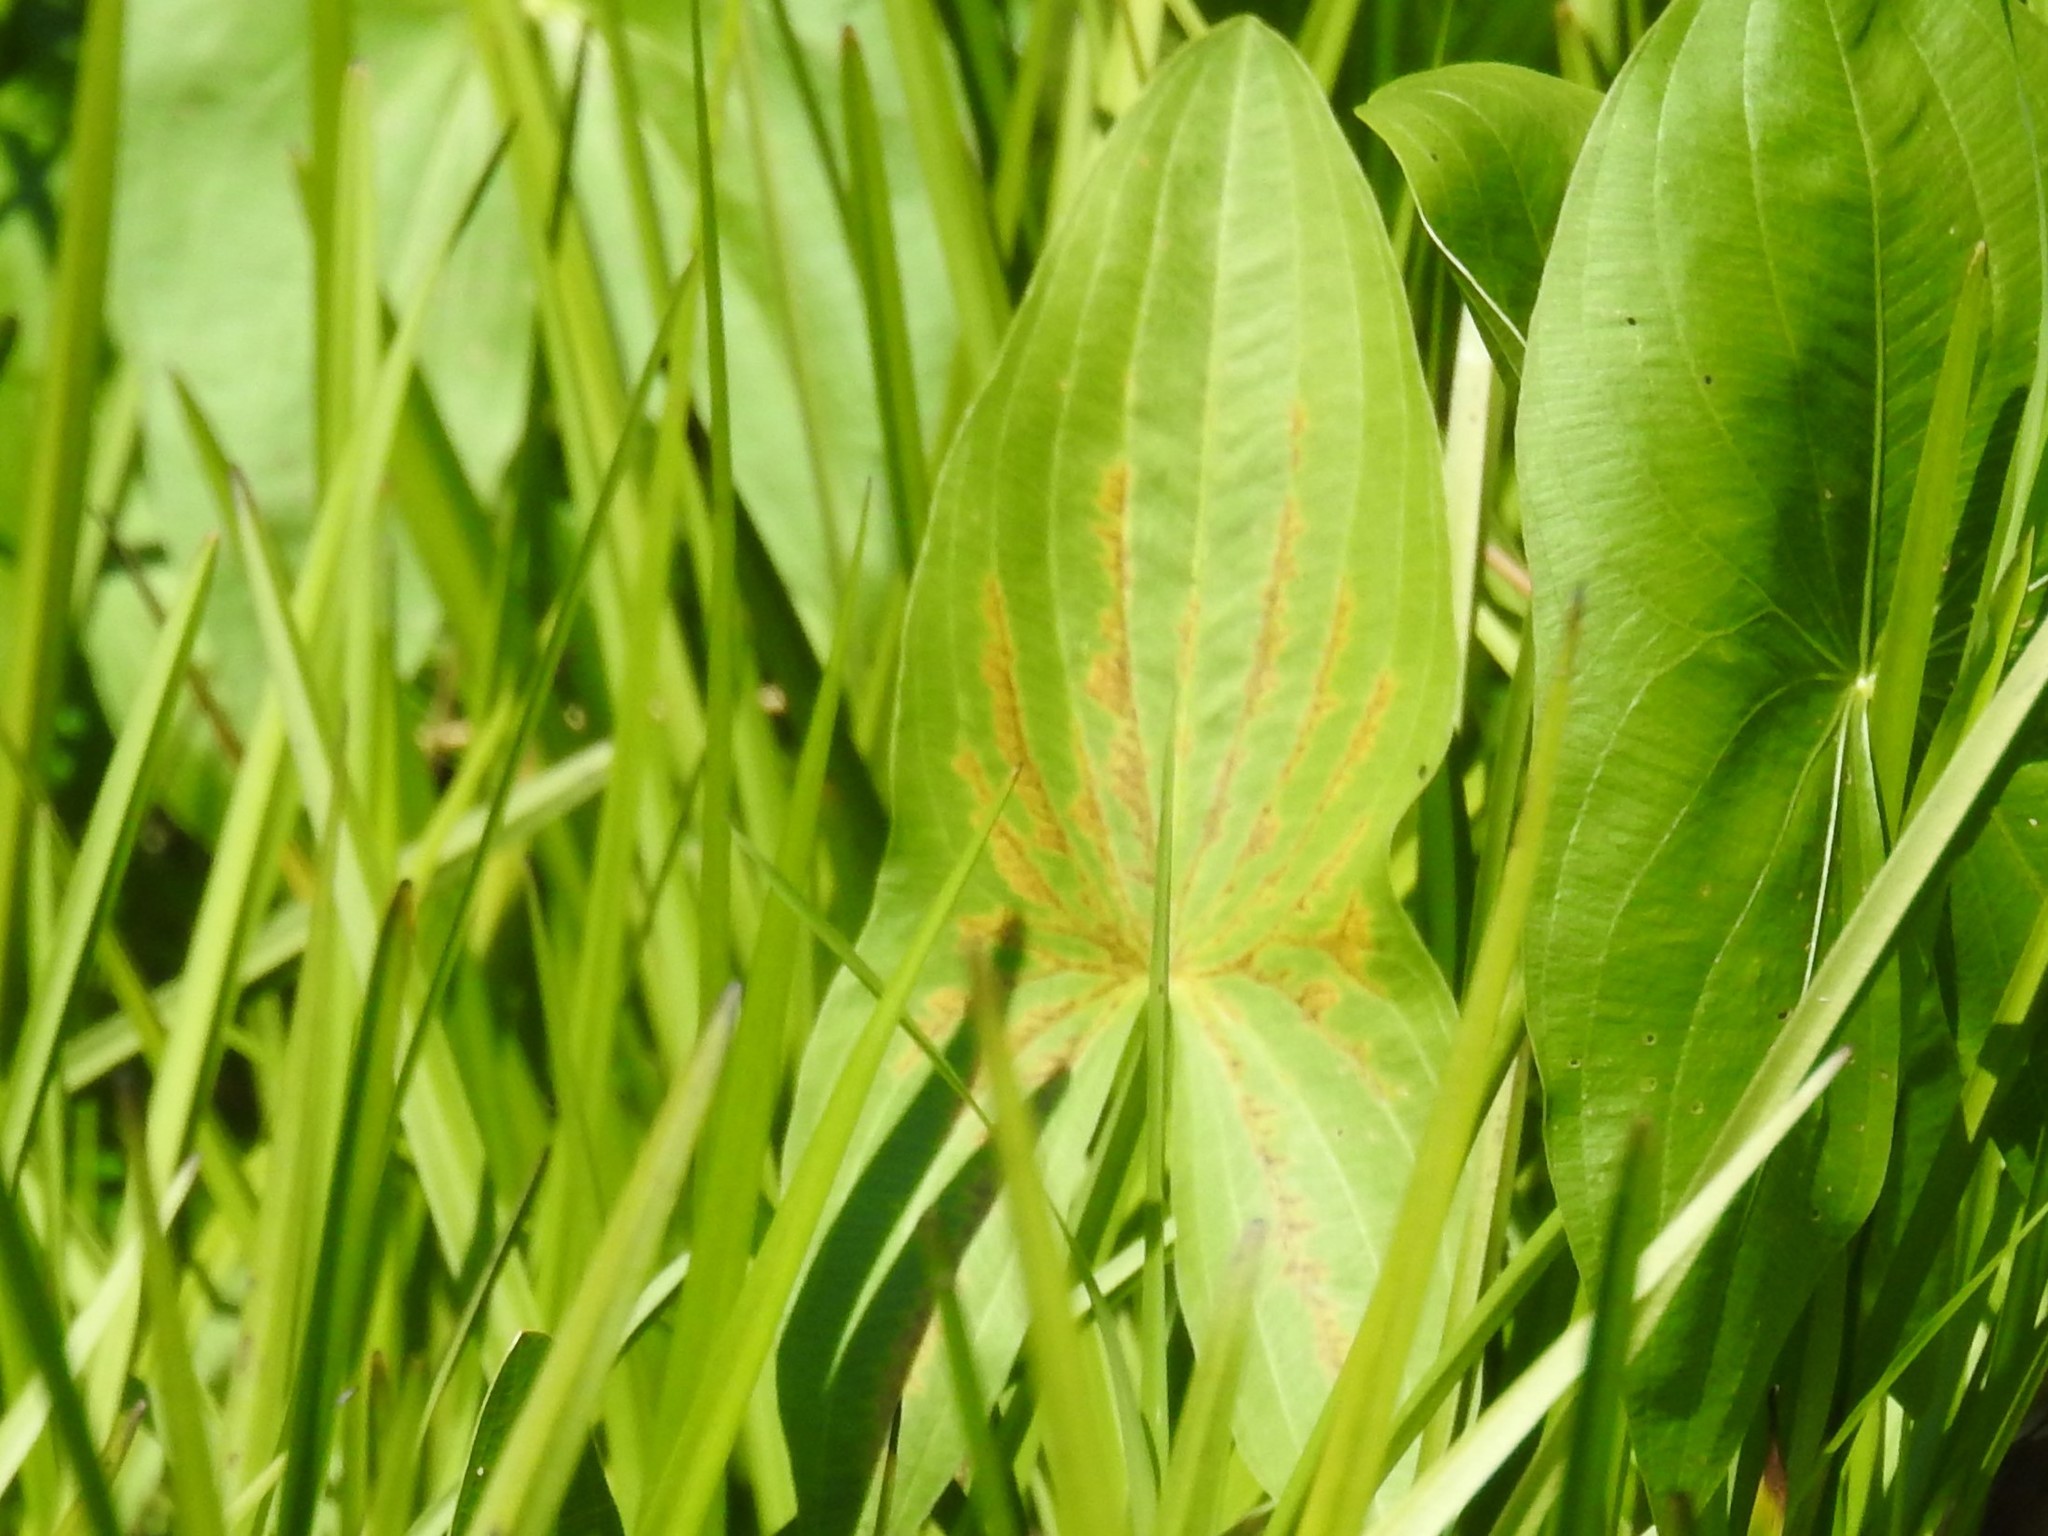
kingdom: Plantae
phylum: Tracheophyta
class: Liliopsida
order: Alismatales
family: Alismataceae
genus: Sagittaria
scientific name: Sagittaria
